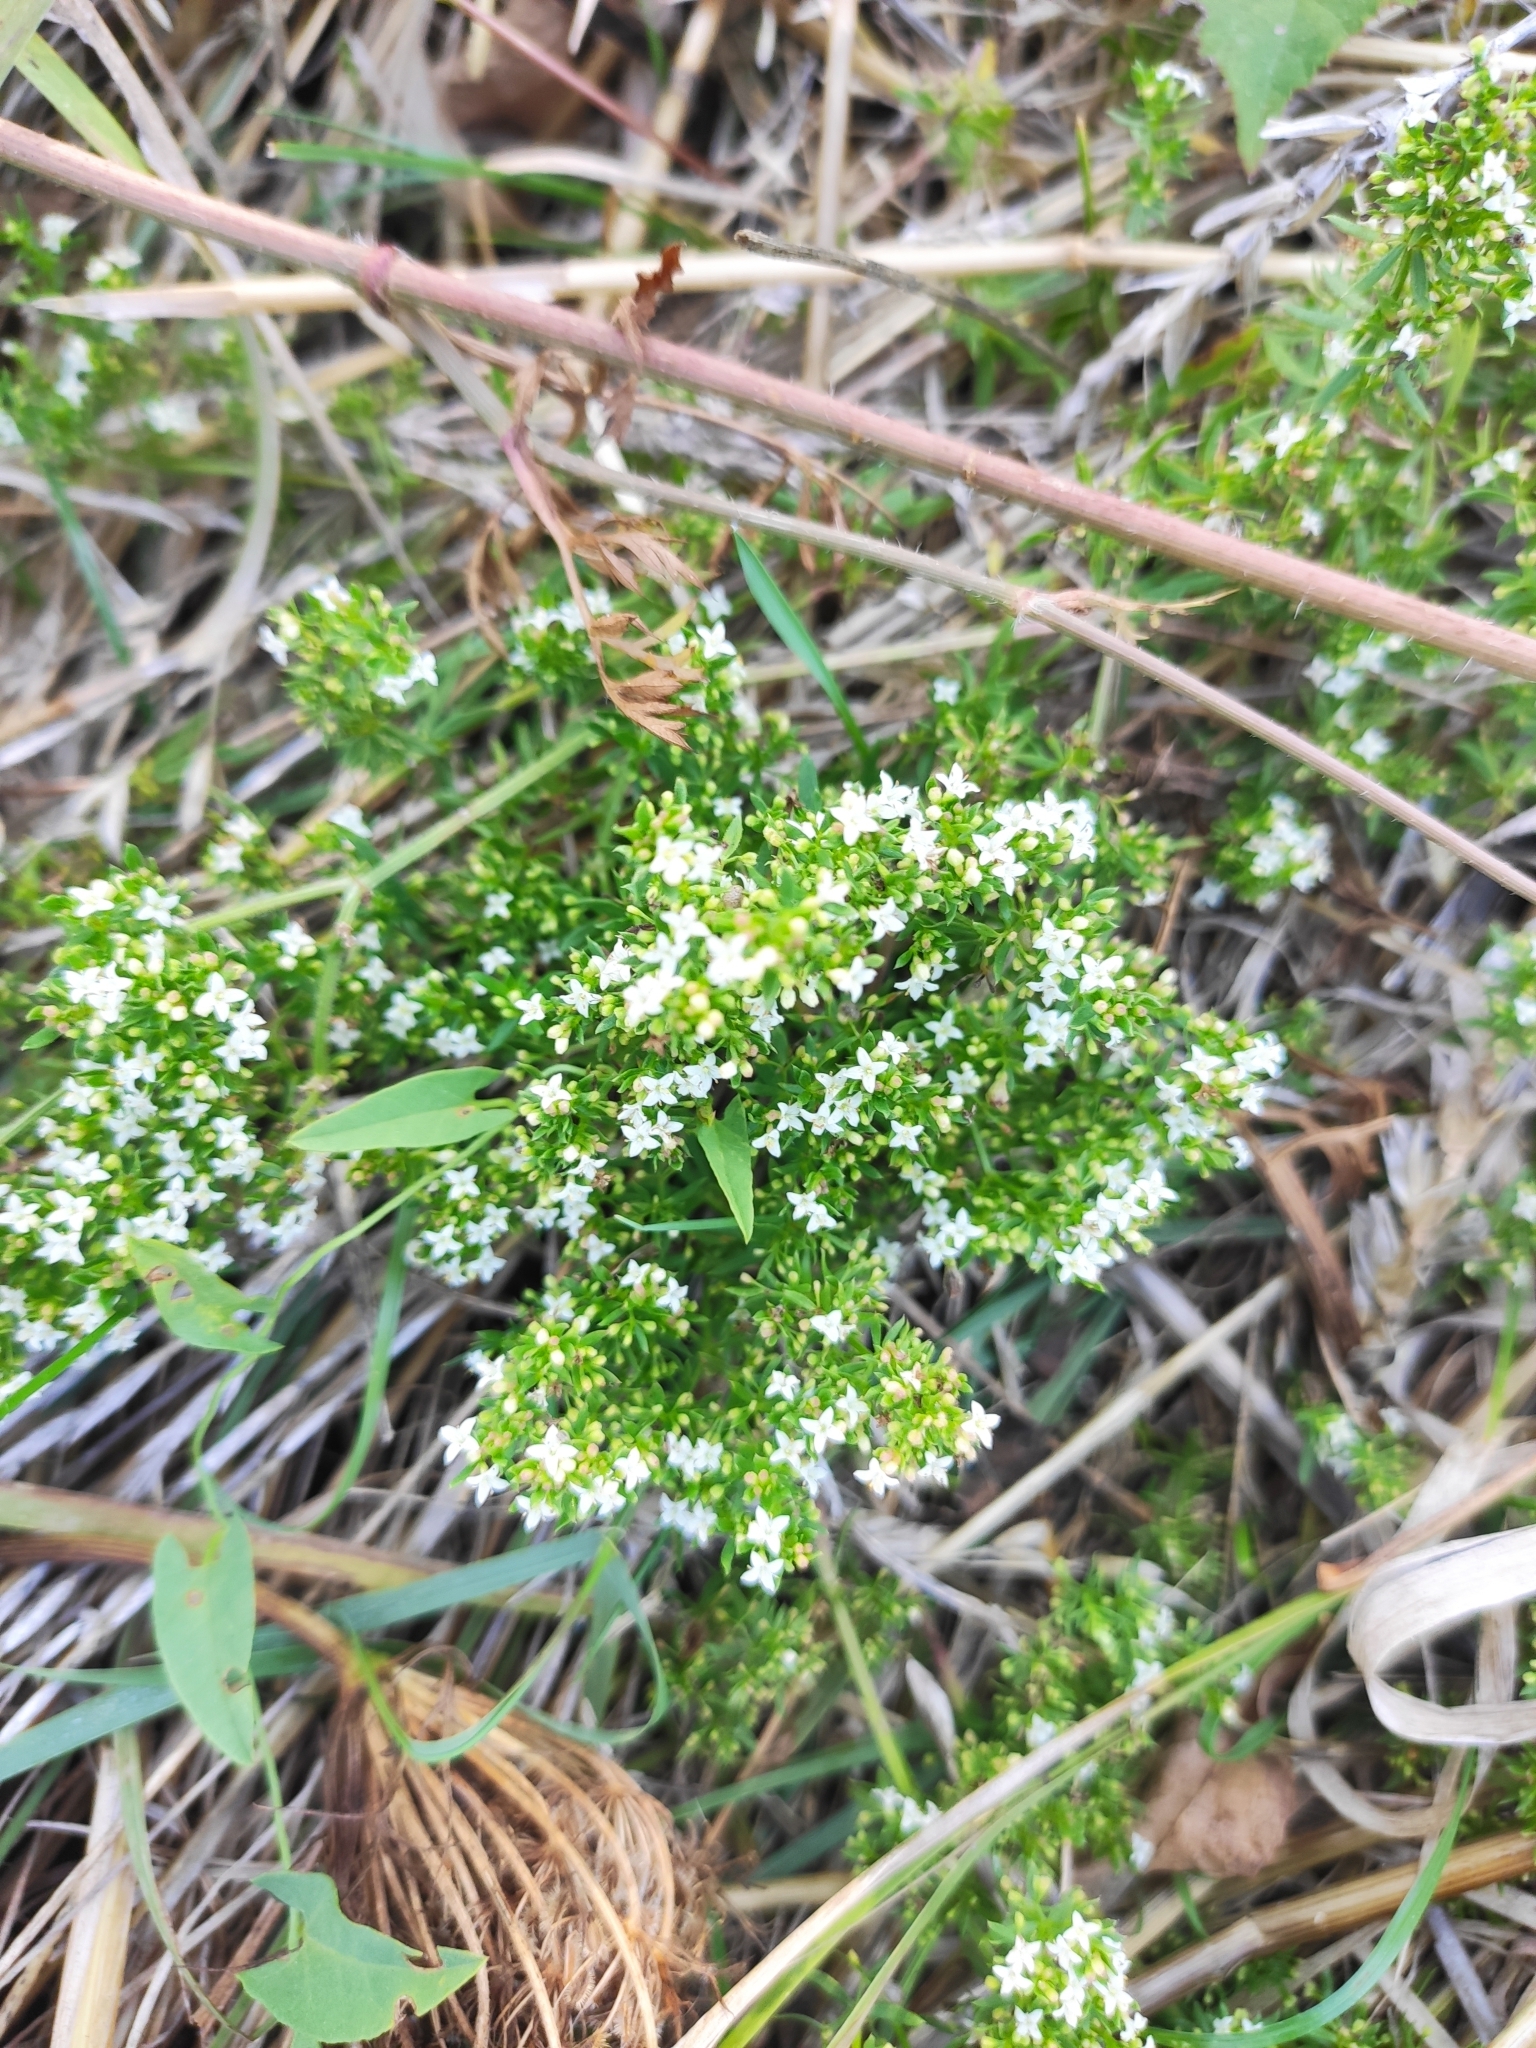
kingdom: Plantae
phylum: Tracheophyta
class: Magnoliopsida
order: Gentianales
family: Rubiaceae
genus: Galium
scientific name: Galium humifusum
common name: Spreading bedstraw
